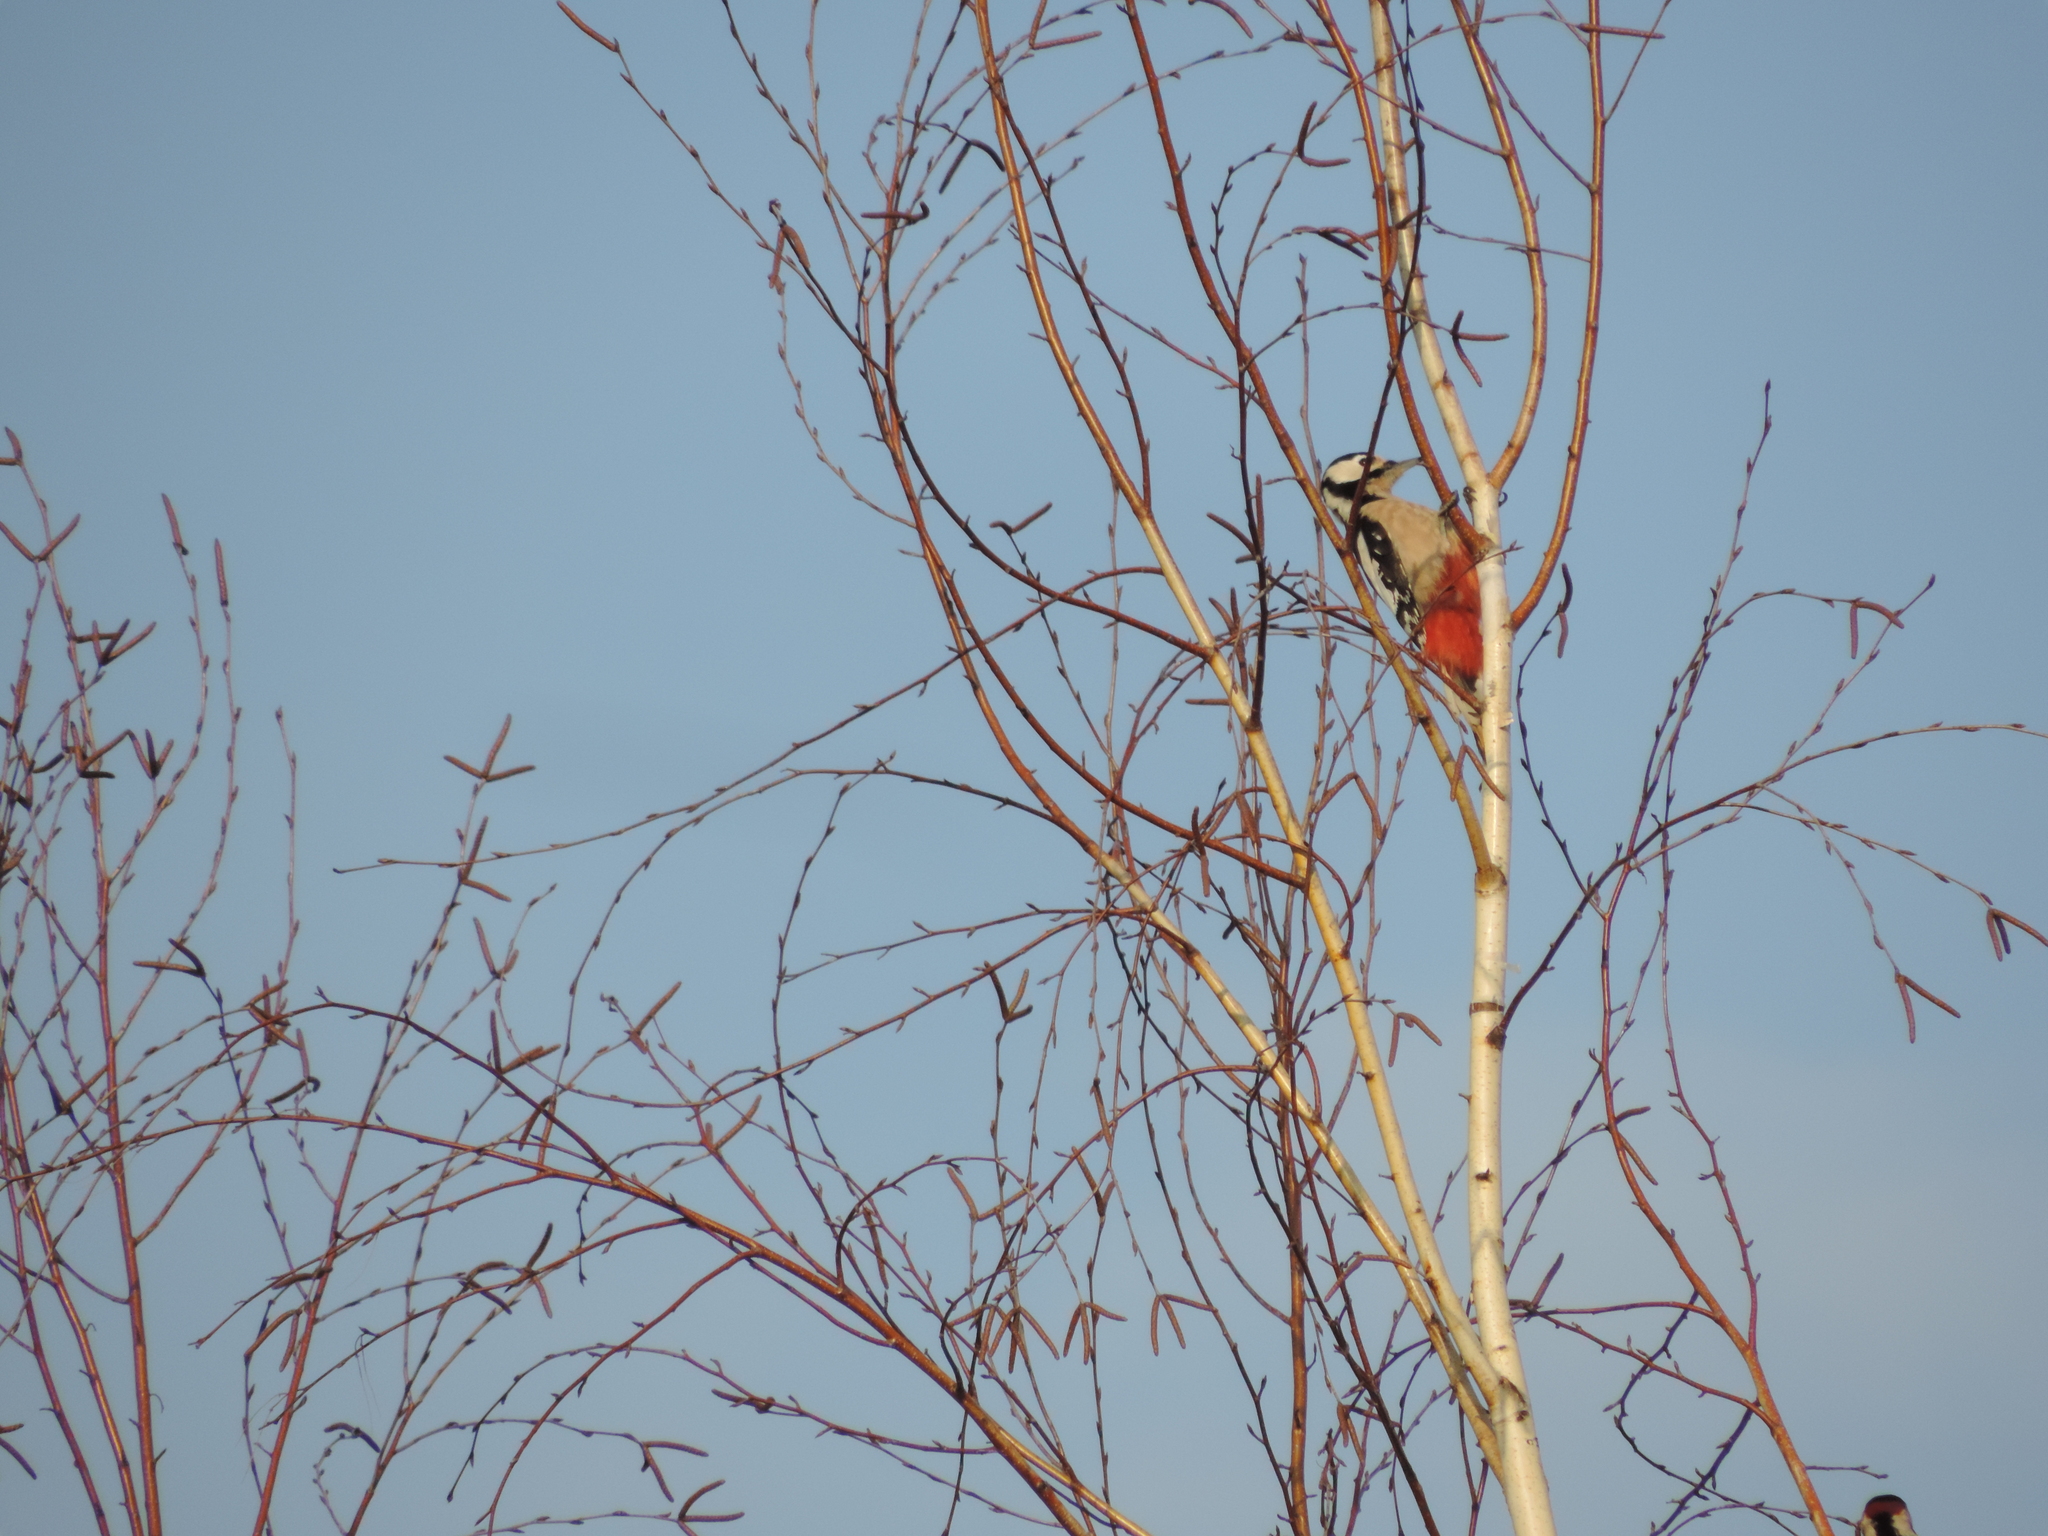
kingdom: Animalia
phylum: Chordata
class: Aves
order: Piciformes
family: Picidae
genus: Dendrocopos
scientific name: Dendrocopos major
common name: Great spotted woodpecker
